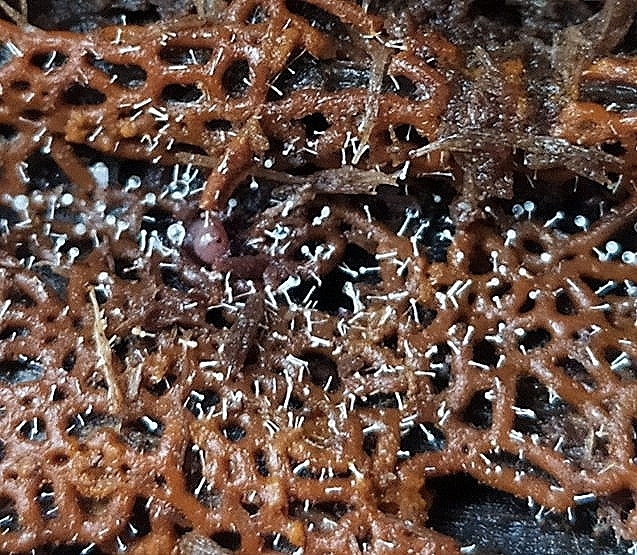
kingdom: Fungi
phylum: Ascomycota
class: Sordariomycetes
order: Hypocreales
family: Ophiocordycipitaceae
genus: Polycephalomyces
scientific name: Polycephalomyces tomentosus
